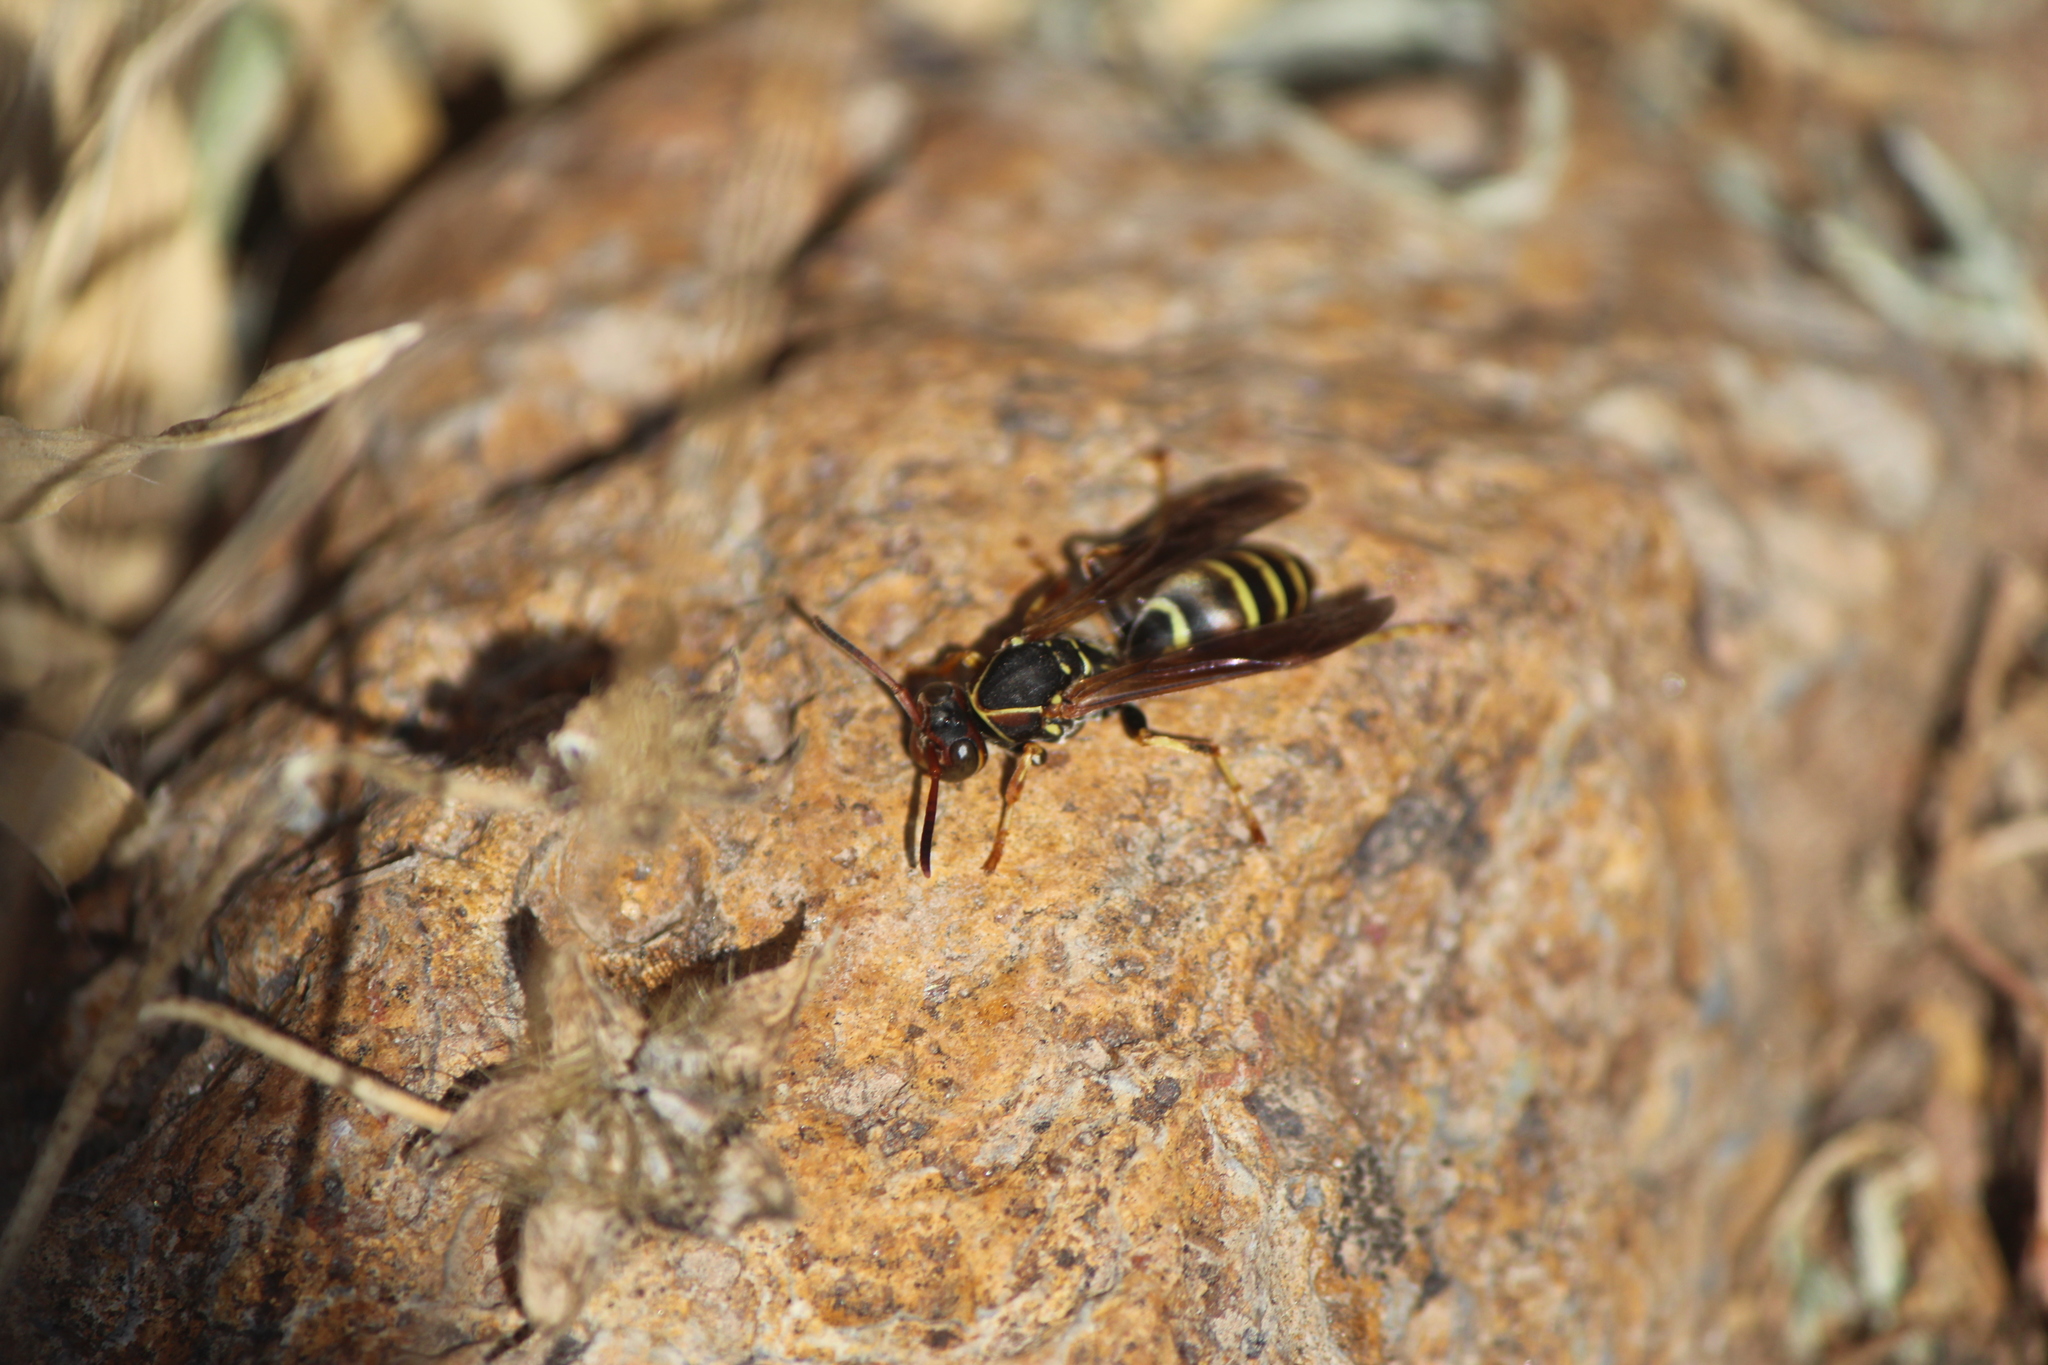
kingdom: Animalia
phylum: Arthropoda
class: Insecta
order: Hymenoptera
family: Eumenidae
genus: Polistes
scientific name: Polistes dorsalis
